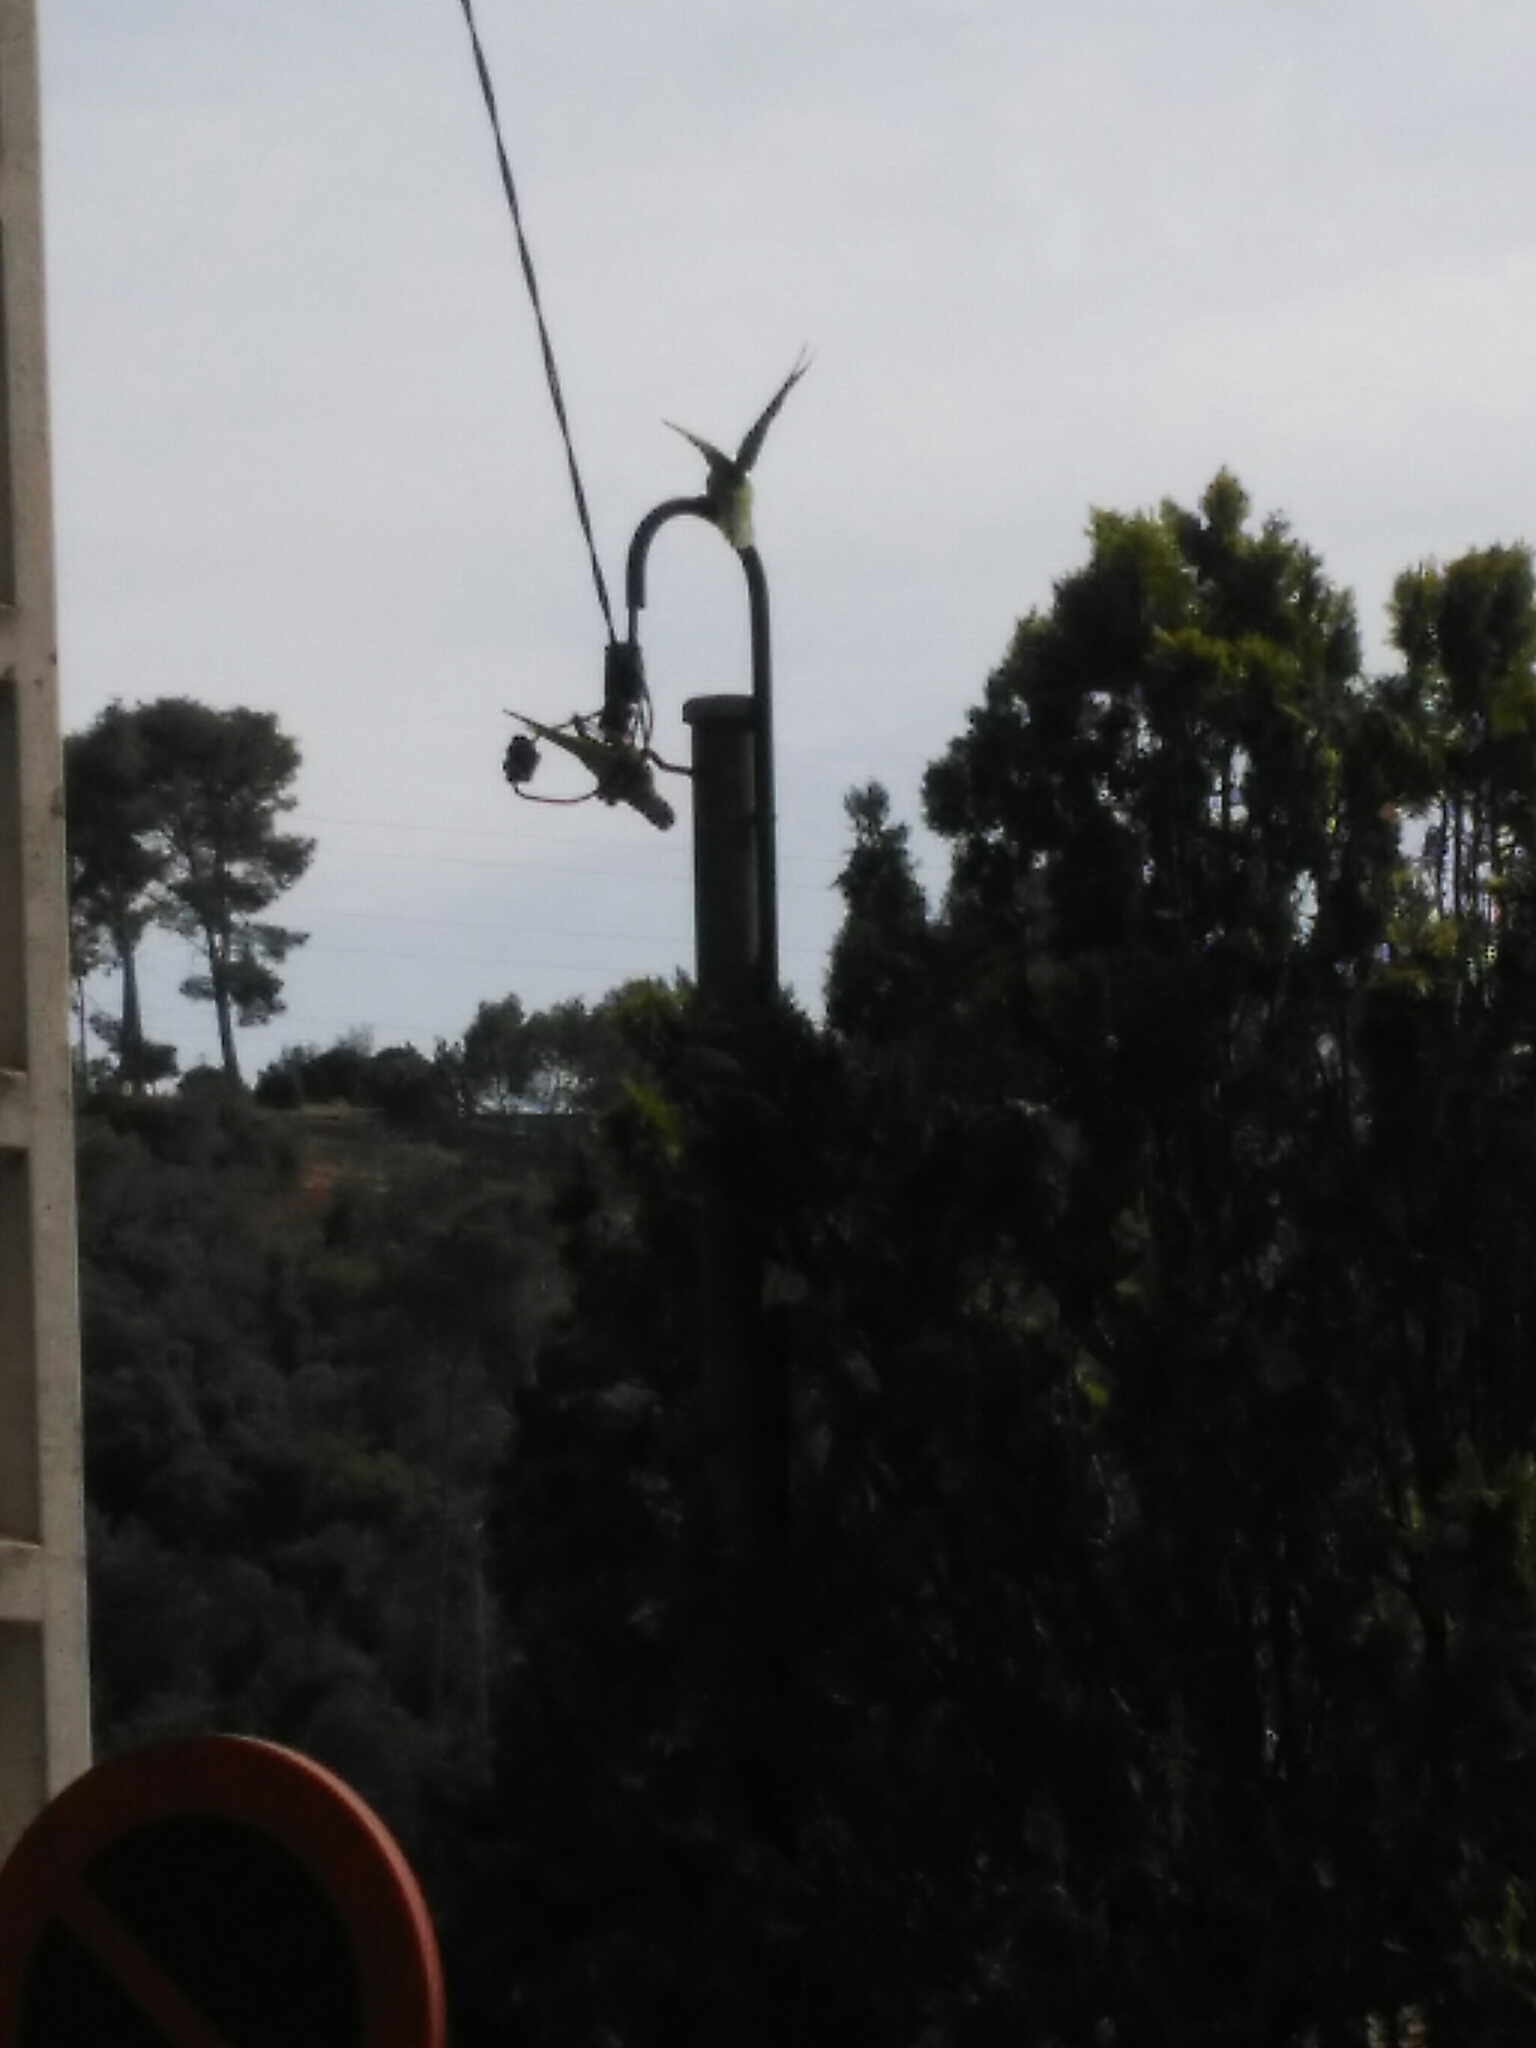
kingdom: Animalia
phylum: Chordata
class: Aves
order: Psittaciformes
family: Psittacidae
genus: Myiopsitta
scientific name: Myiopsitta monachus
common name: Monk parakeet
